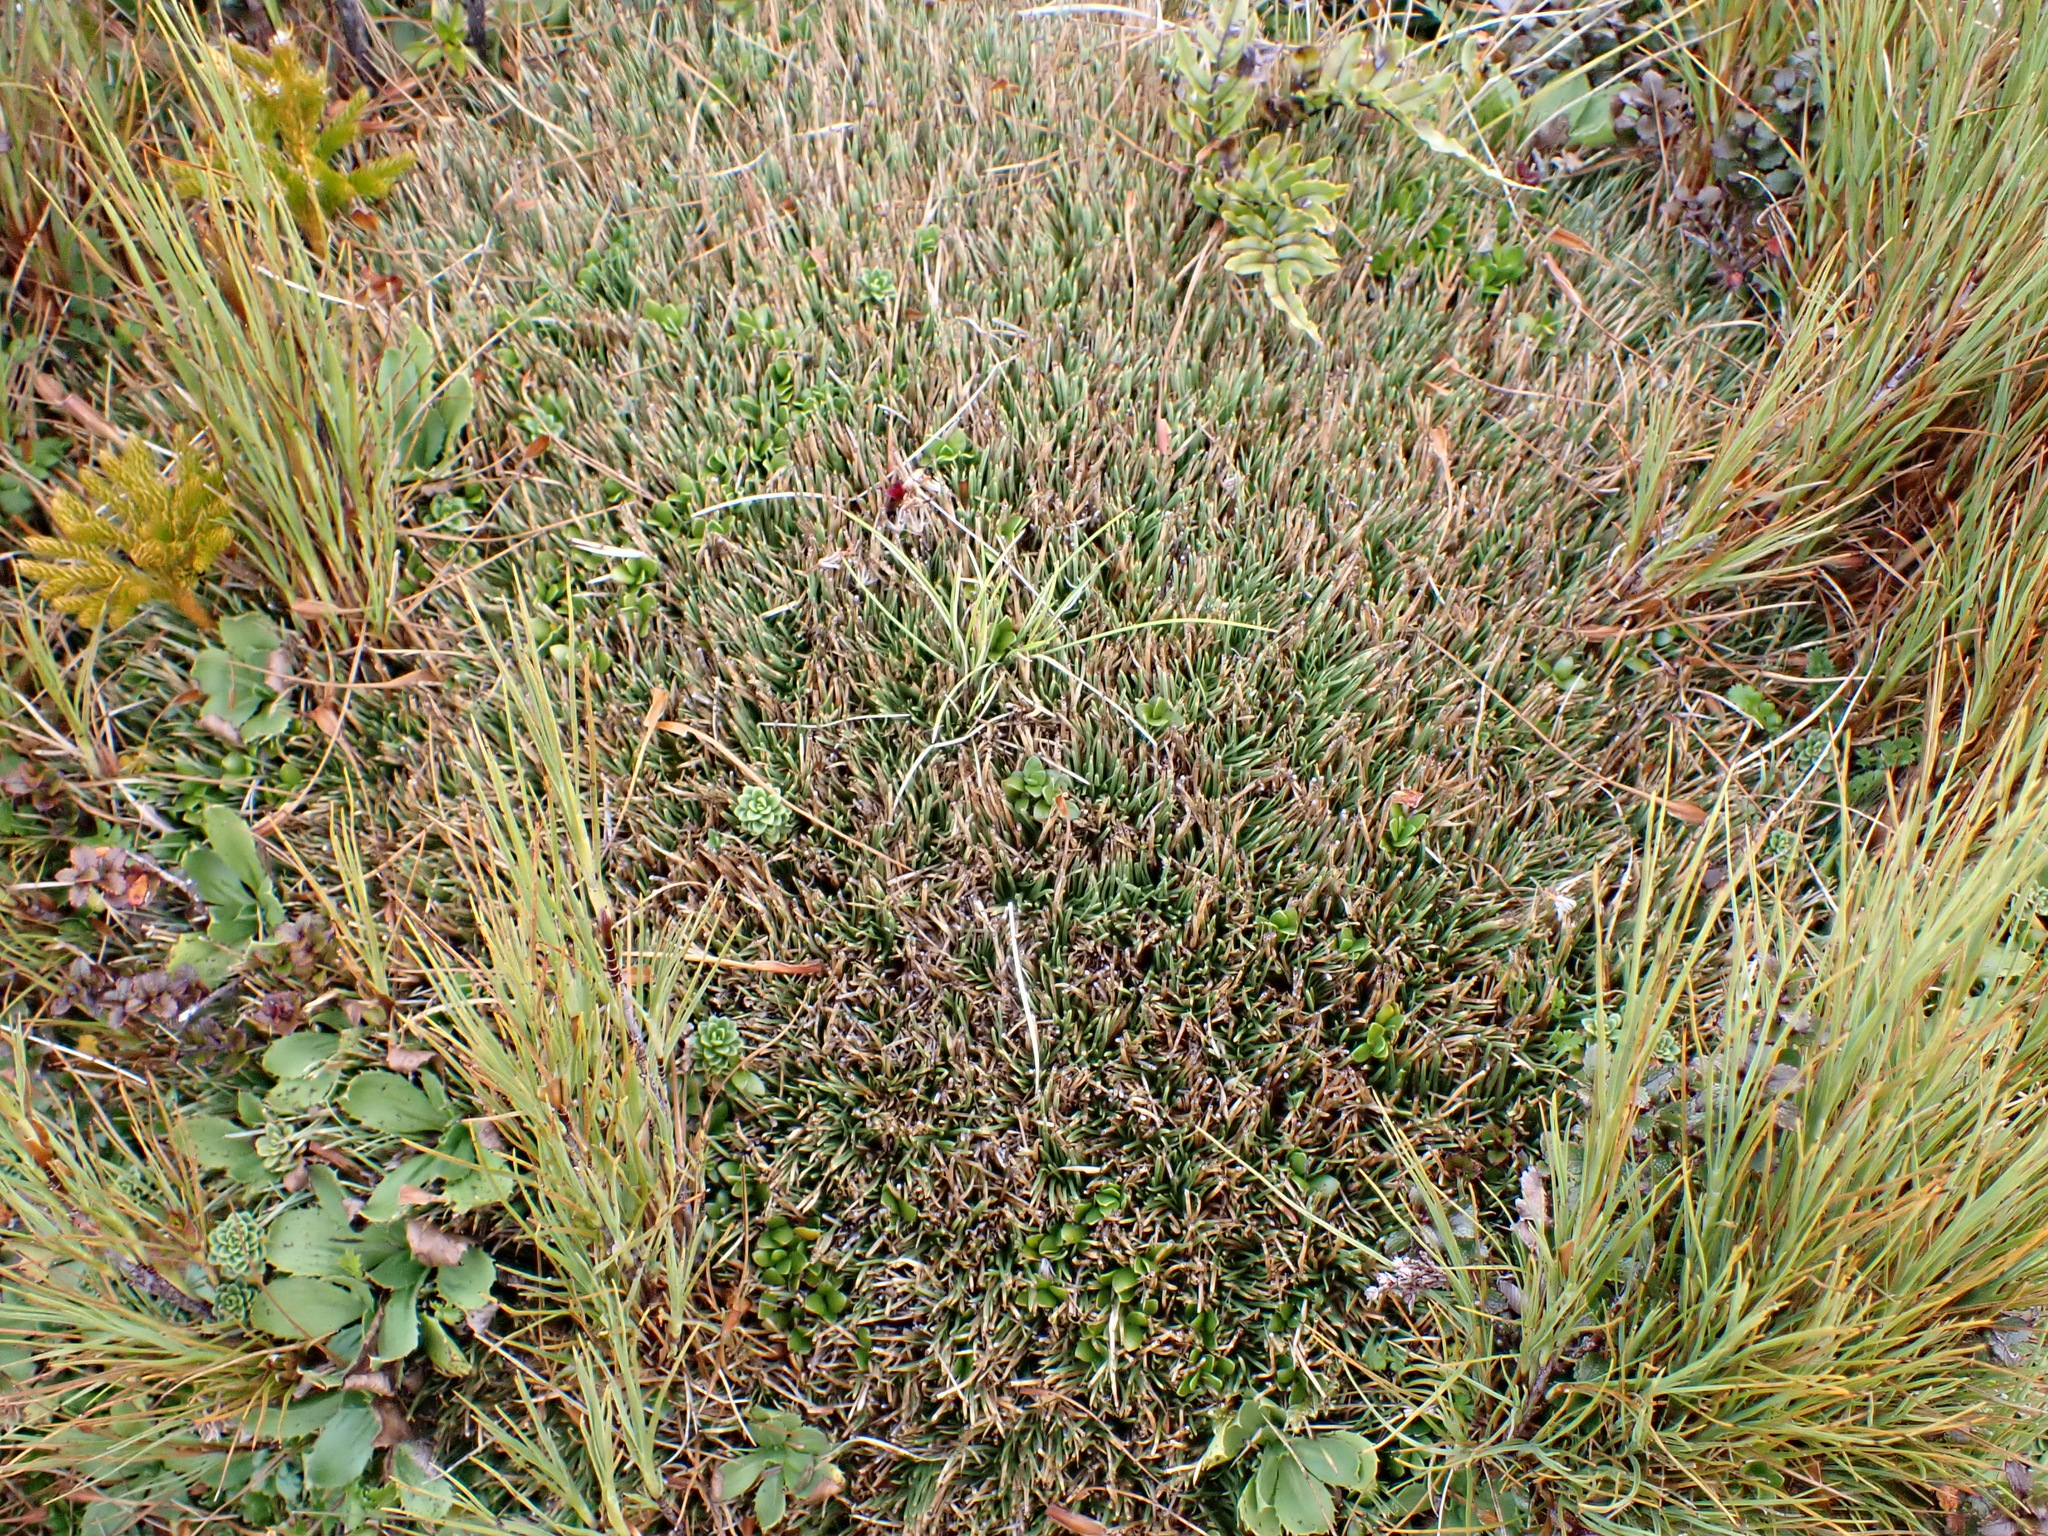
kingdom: Plantae
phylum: Tracheophyta
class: Liliopsida
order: Poales
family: Cyperaceae
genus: Oreobolus
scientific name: Oreobolus pectinatus
